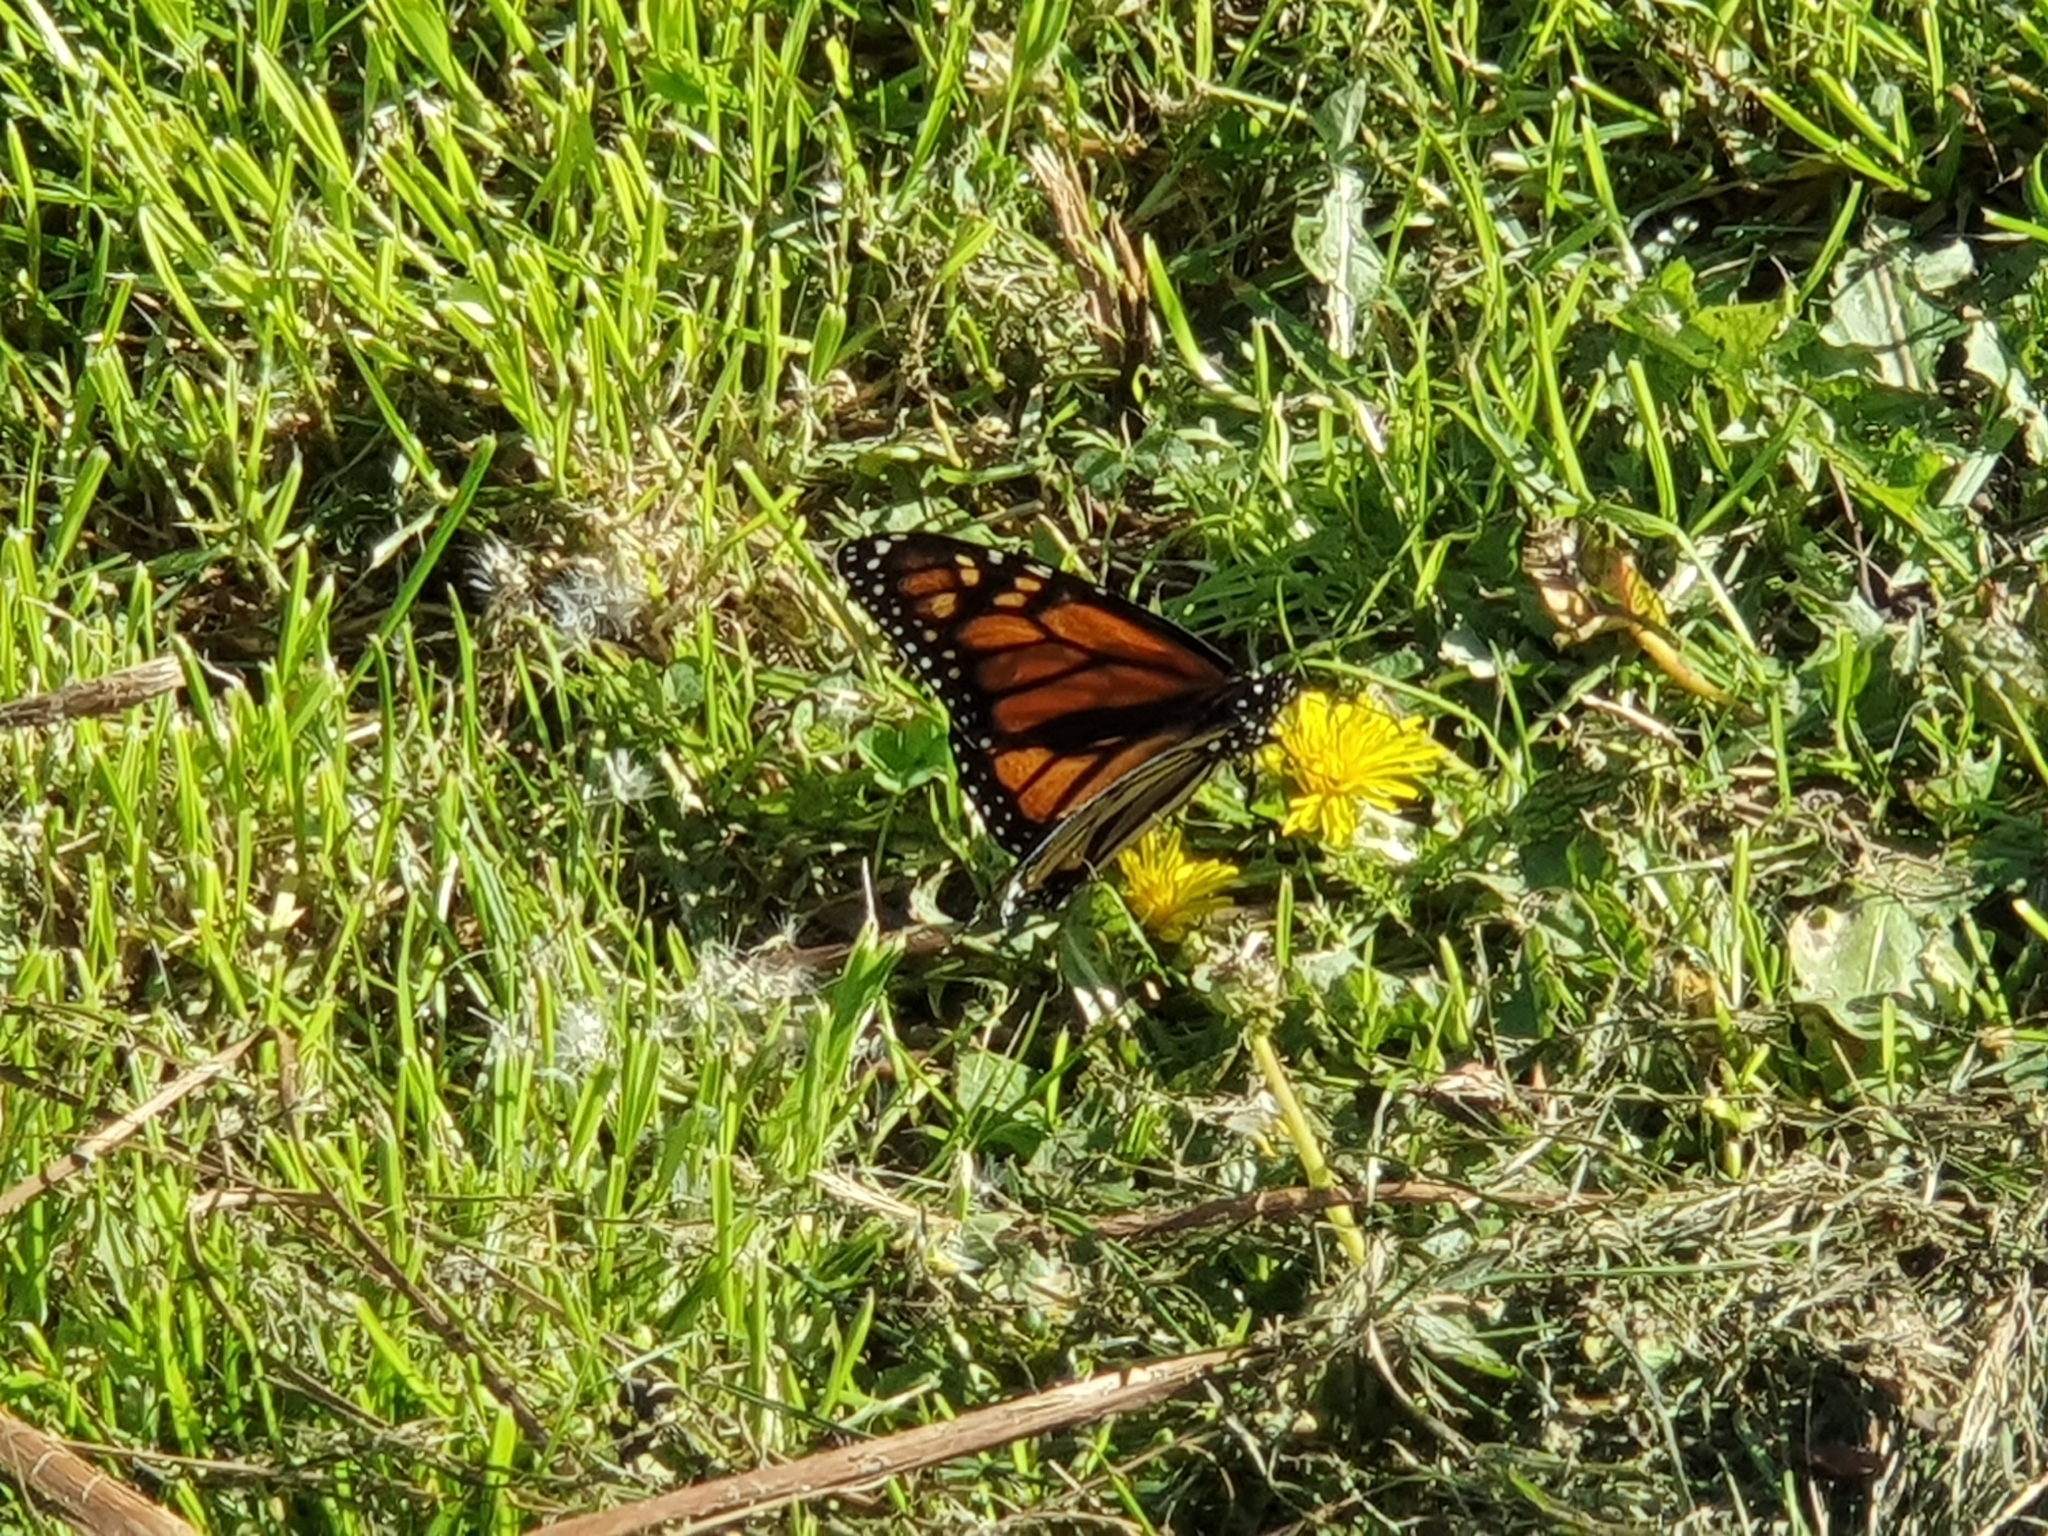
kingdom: Animalia
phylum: Arthropoda
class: Insecta
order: Lepidoptera
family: Nymphalidae
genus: Danaus
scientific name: Danaus plexippus
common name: Monarch
